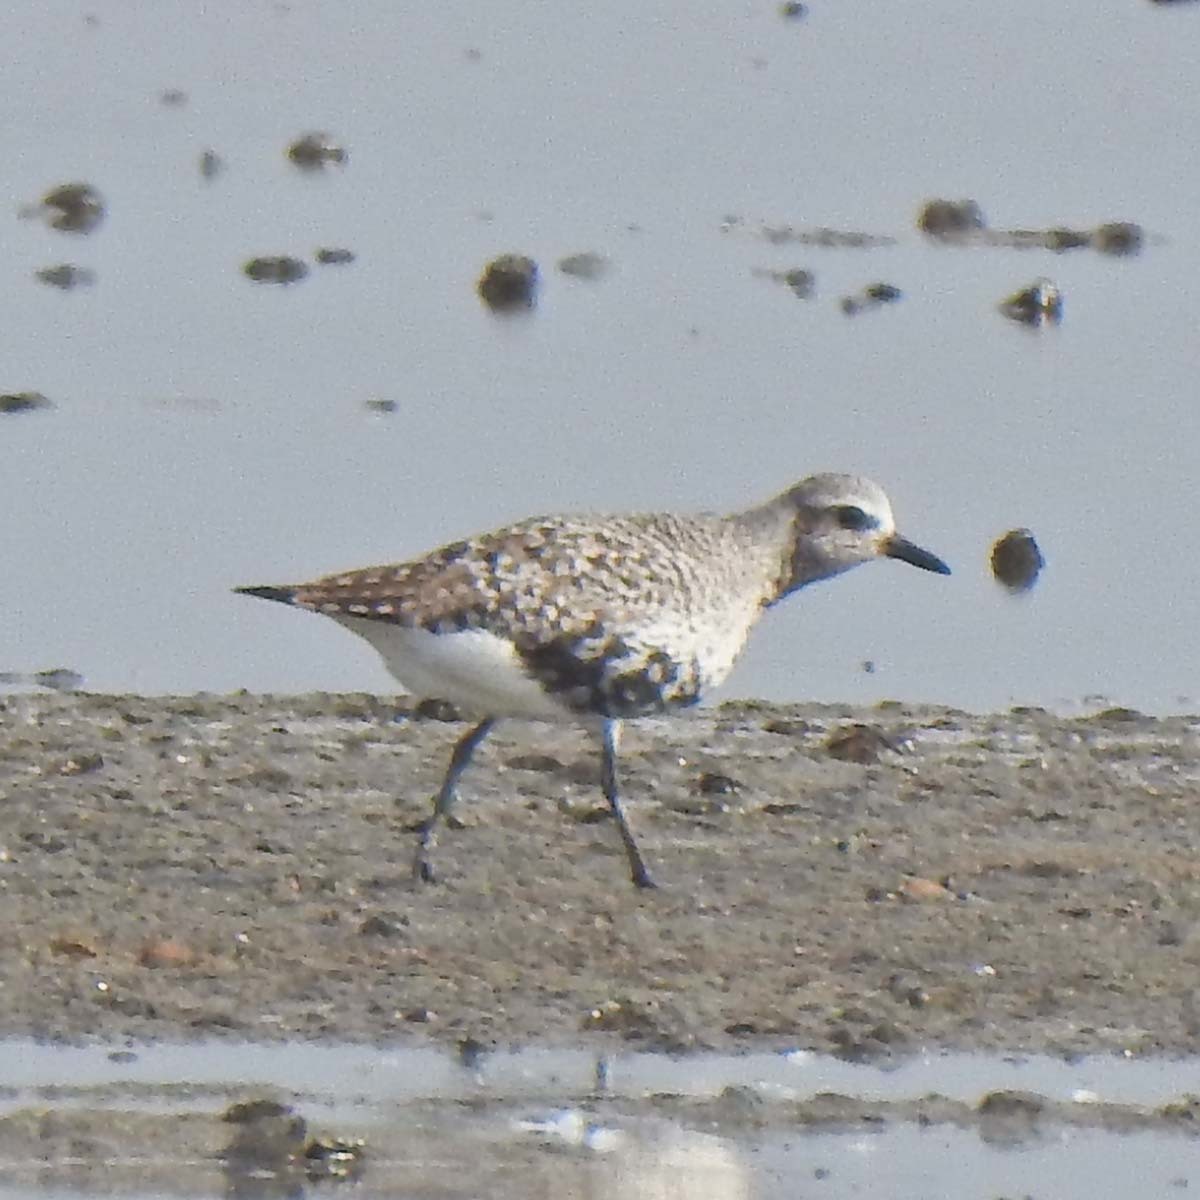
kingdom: Animalia
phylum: Chordata
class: Aves
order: Charadriiformes
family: Charadriidae
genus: Pluvialis
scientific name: Pluvialis squatarola
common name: Grey plover
